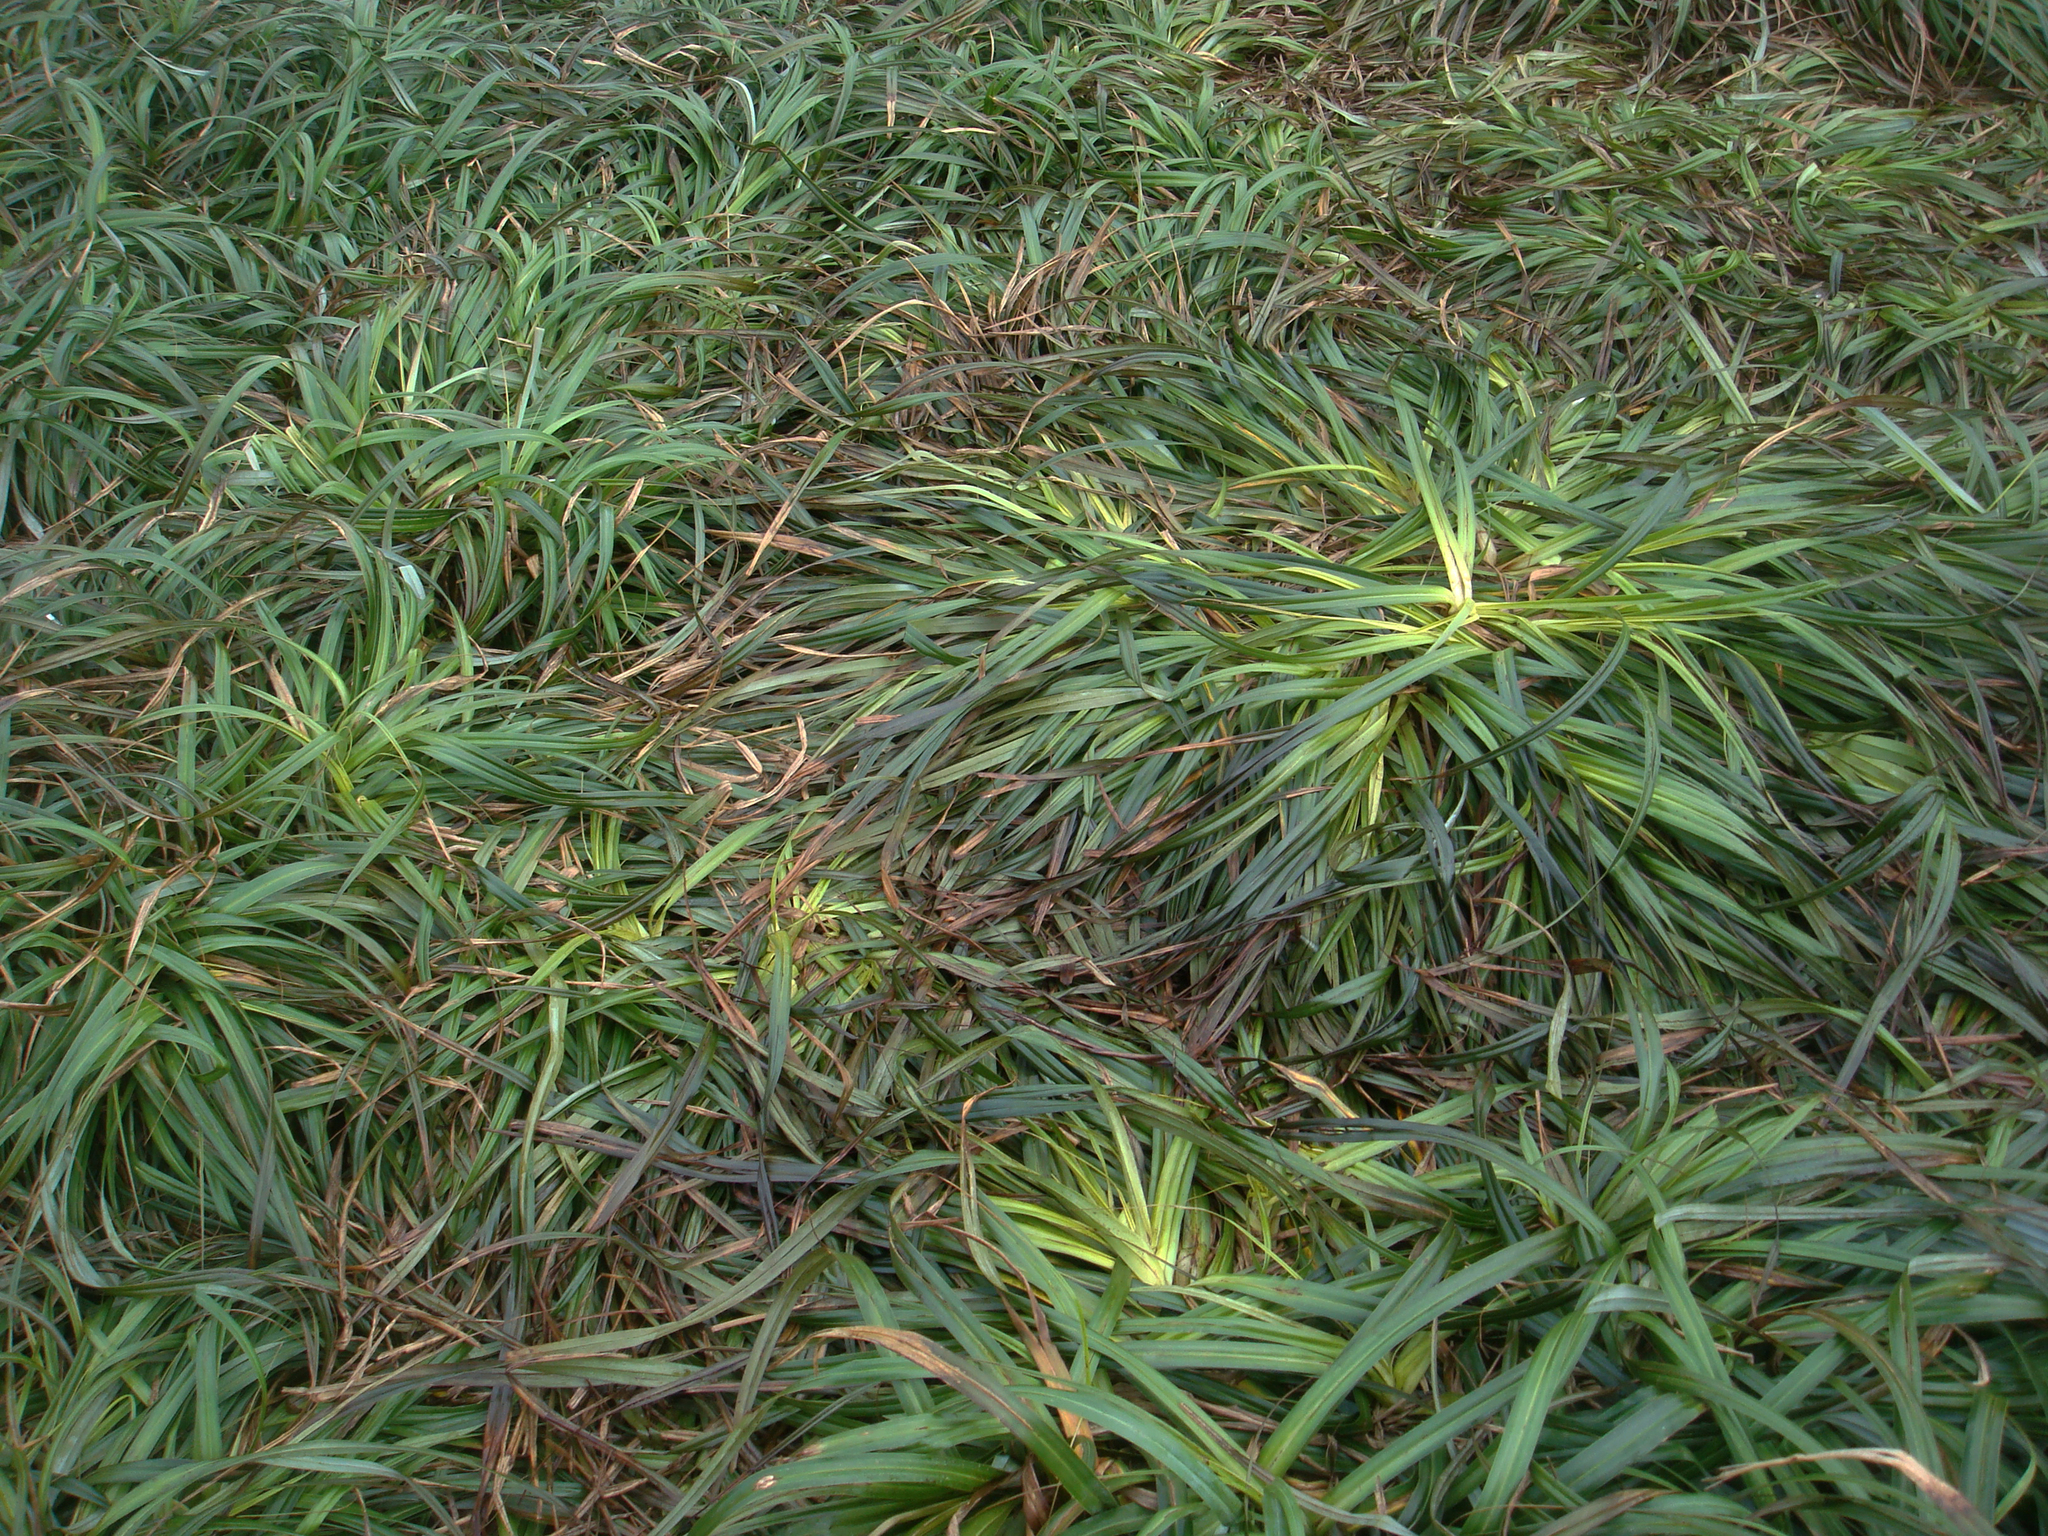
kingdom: Plantae
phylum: Tracheophyta
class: Liliopsida
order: Poales
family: Cyperaceae
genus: Carex
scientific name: Carex trifida
